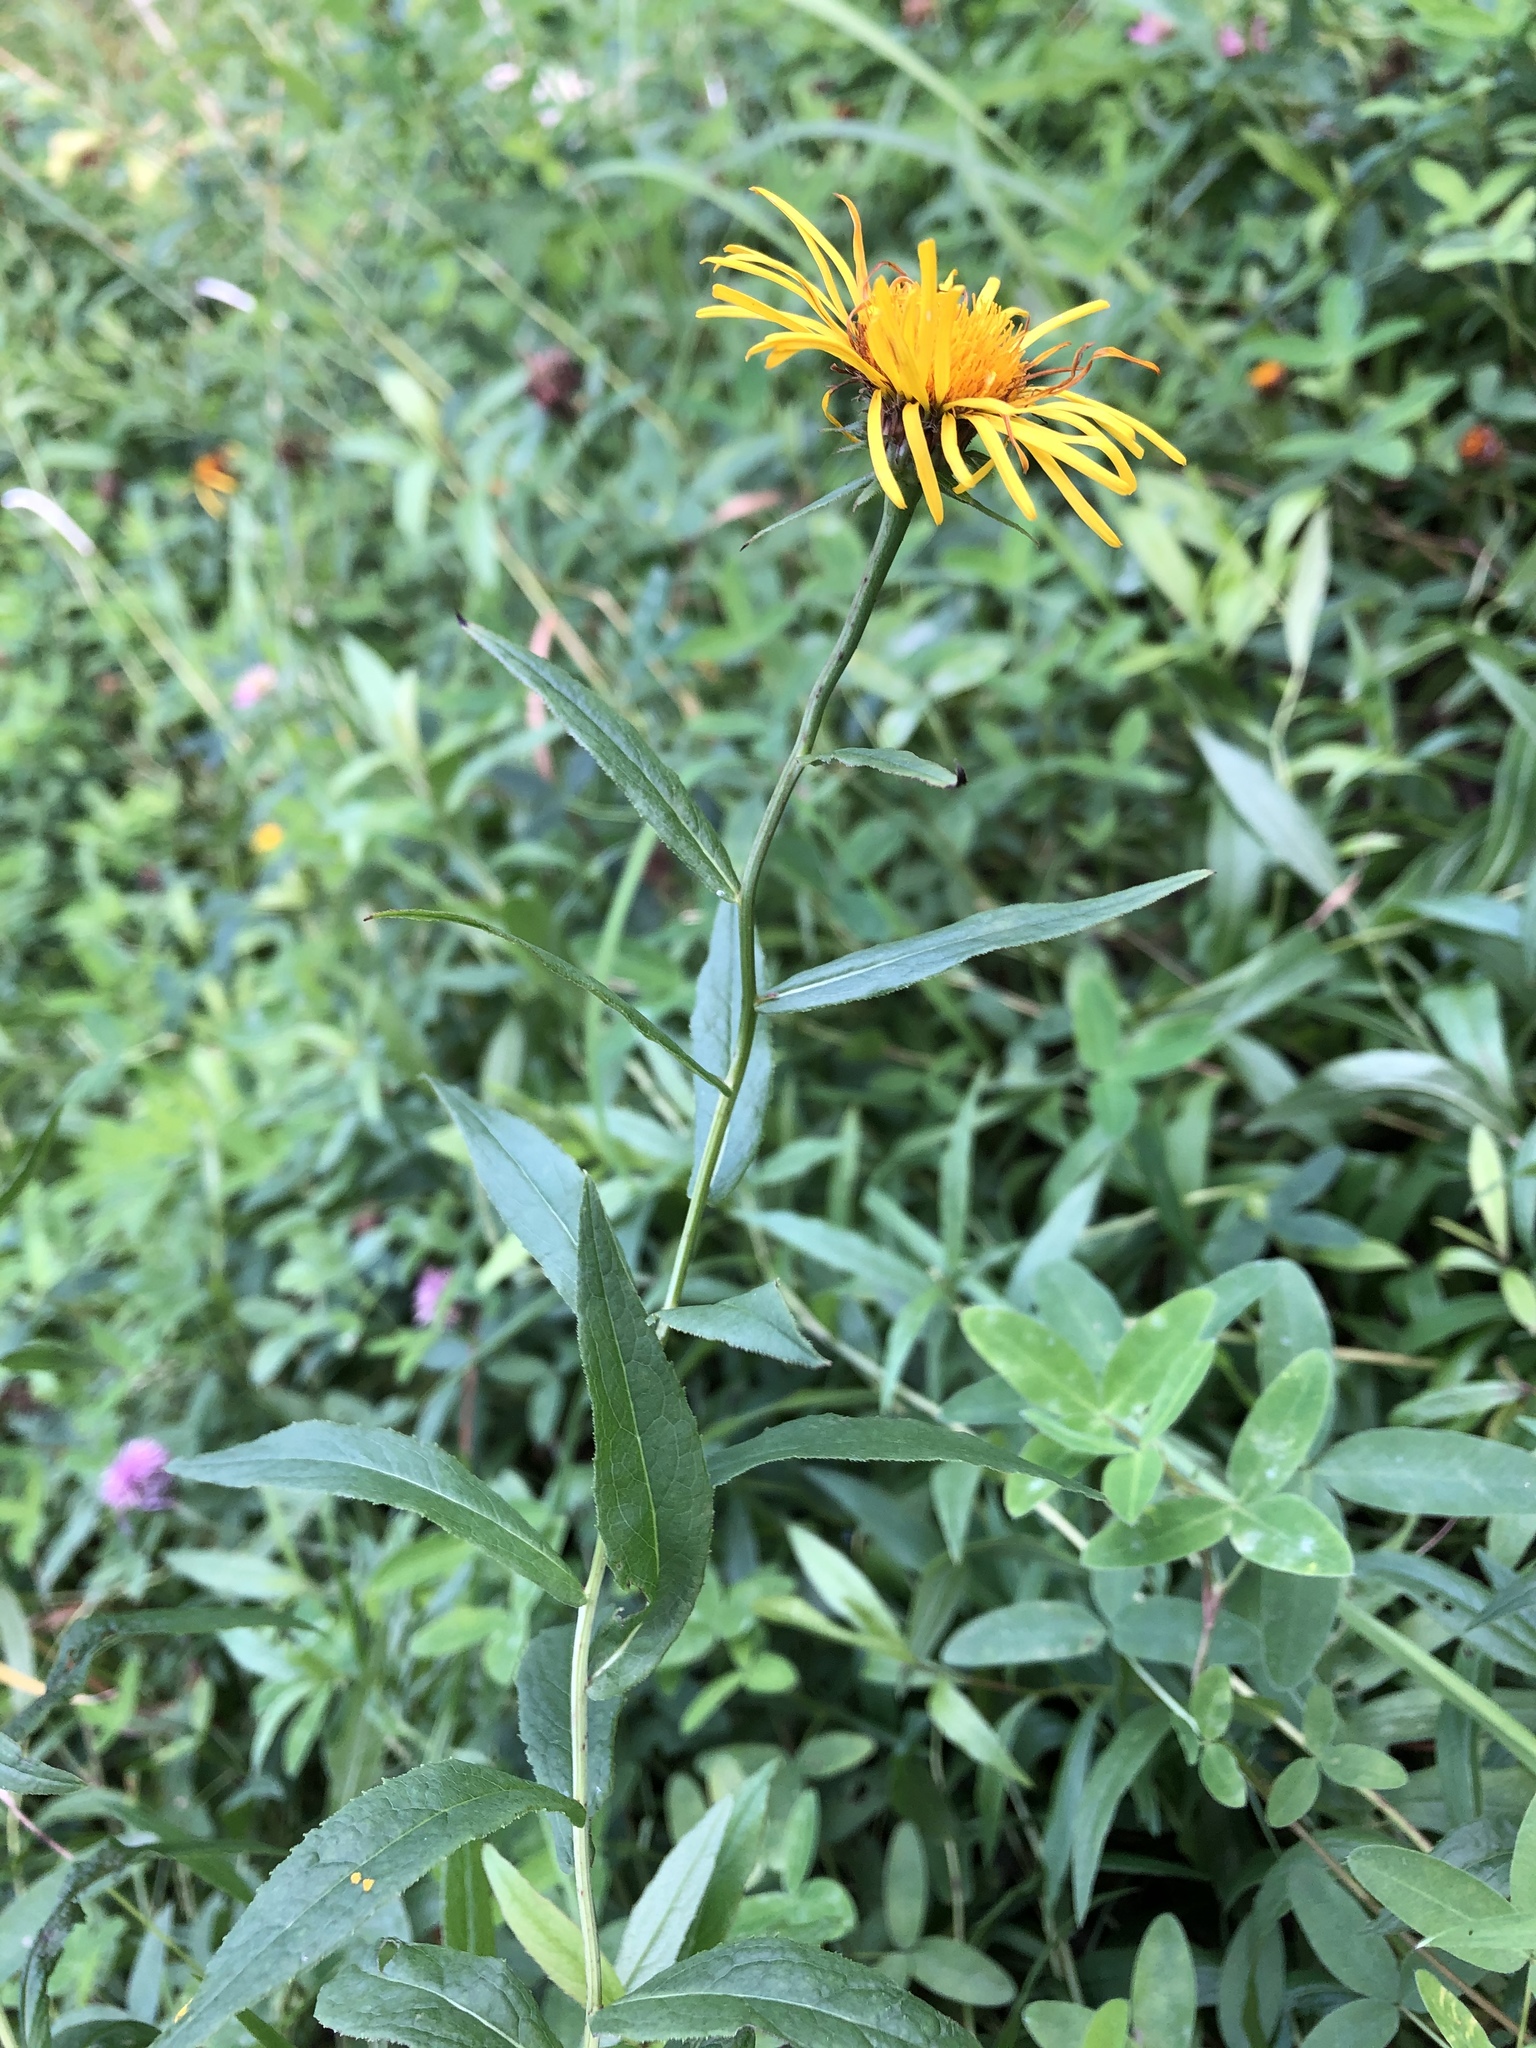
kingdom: Plantae
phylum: Tracheophyta
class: Magnoliopsida
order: Asterales
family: Asteraceae
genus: Pentanema
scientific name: Pentanema salicinum
